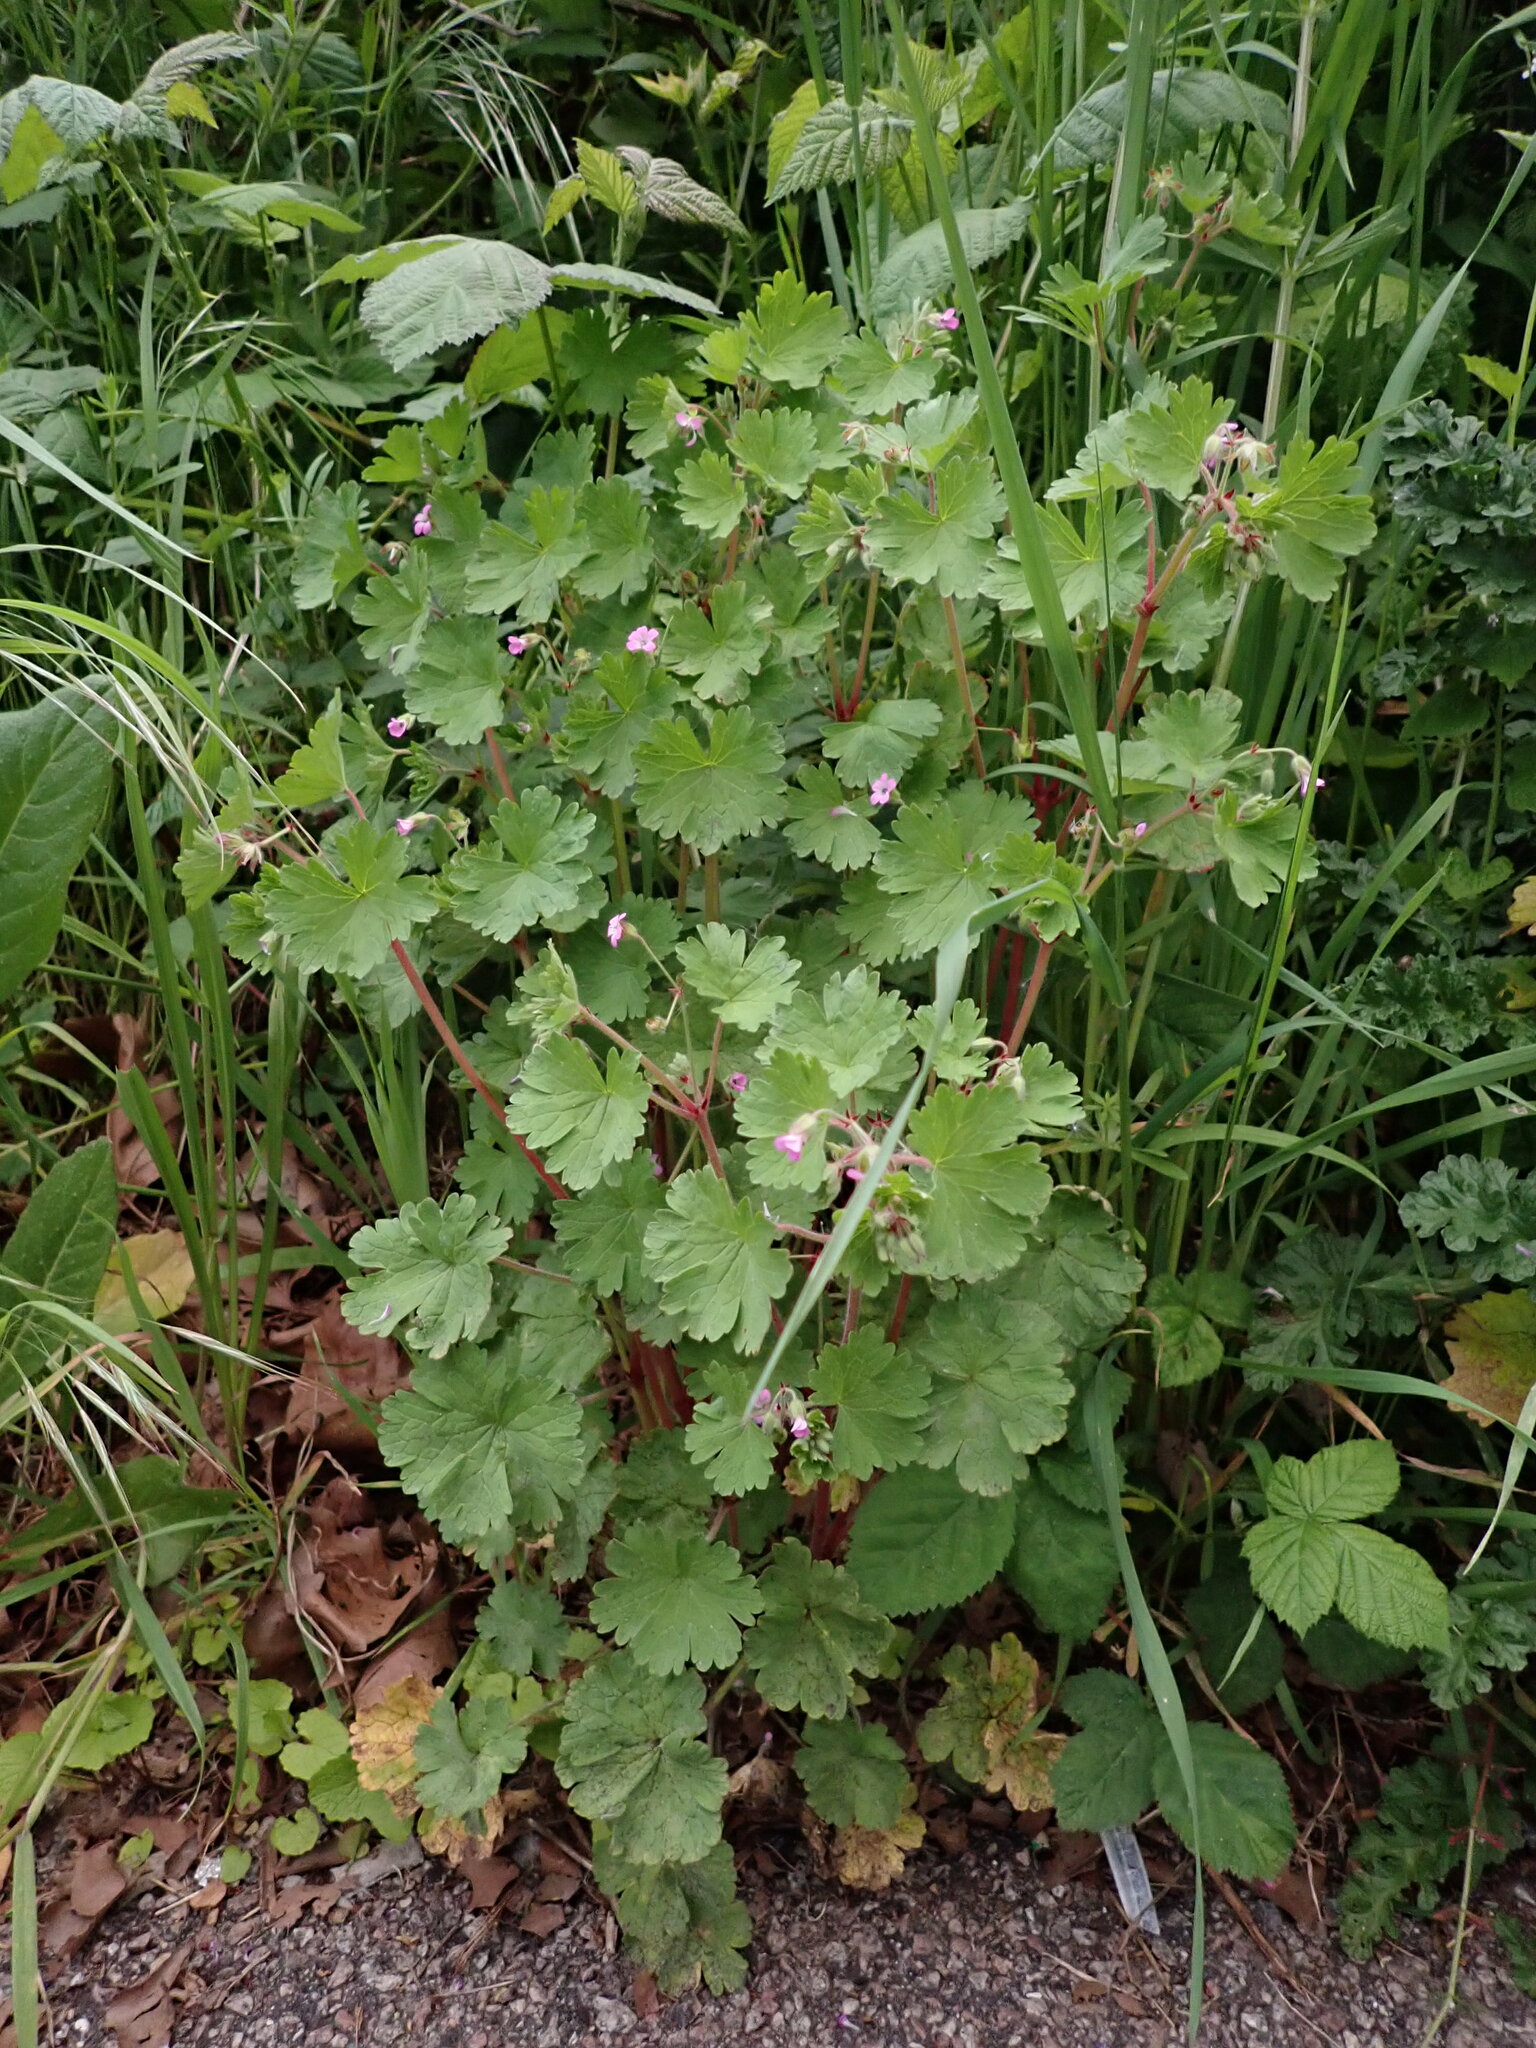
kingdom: Plantae
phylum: Tracheophyta
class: Magnoliopsida
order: Geraniales
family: Geraniaceae
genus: Geranium
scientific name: Geranium rotundifolium
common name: Round-leaved crane's-bill
